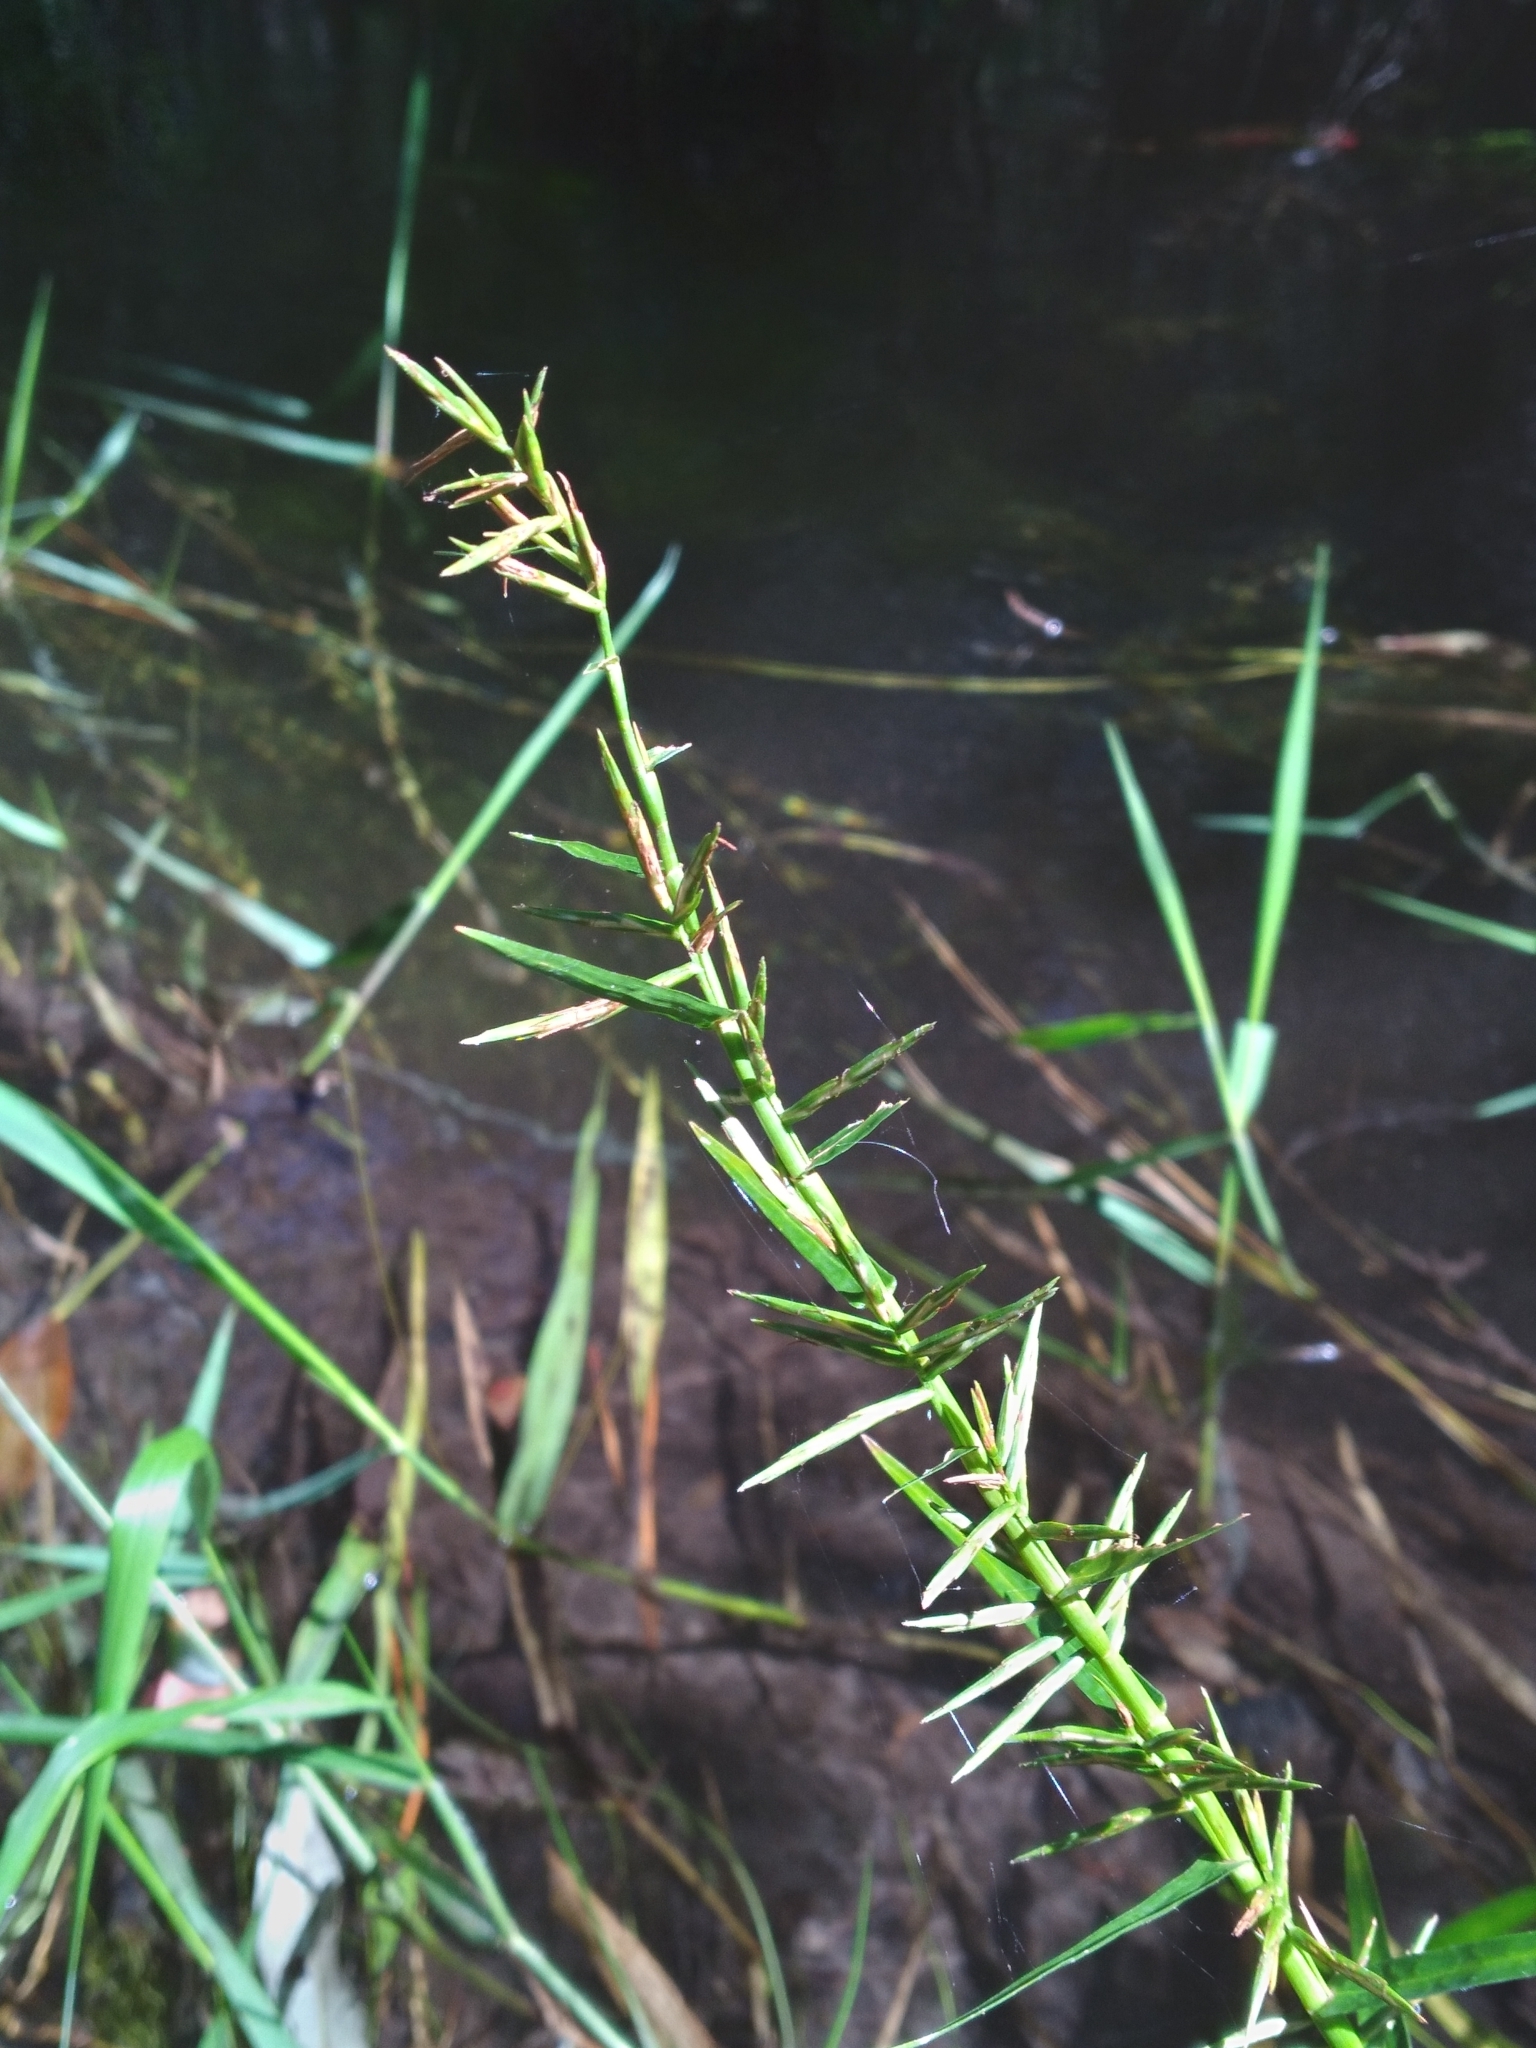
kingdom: Plantae
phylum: Tracheophyta
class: Liliopsida
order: Poales
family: Cyperaceae
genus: Dulichium
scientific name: Dulichium arundinaceum
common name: Three-way sedge
